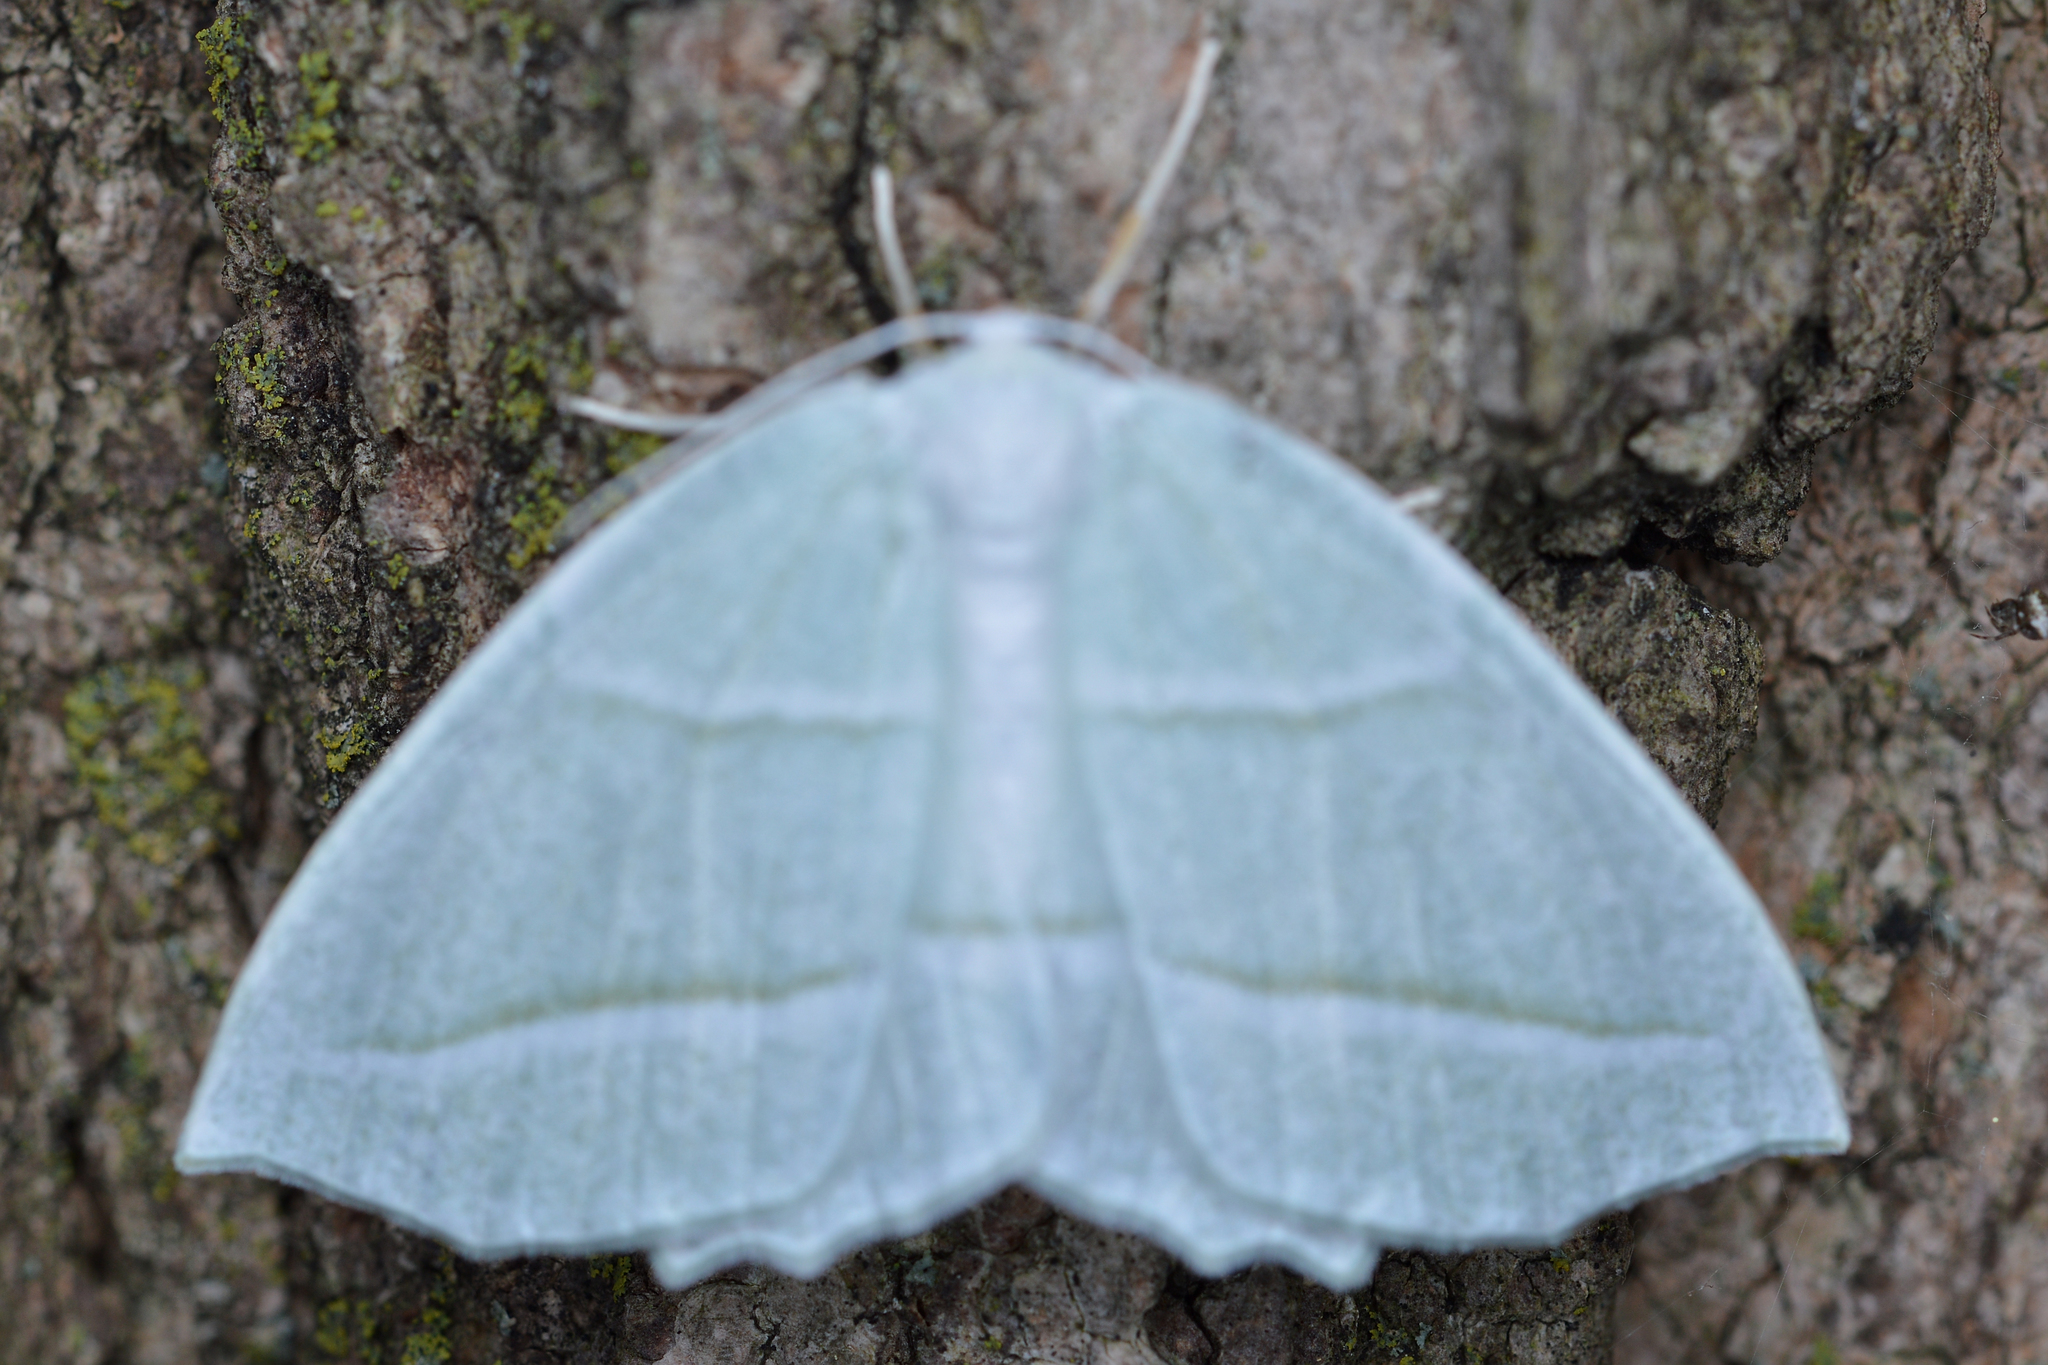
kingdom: Animalia
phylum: Arthropoda
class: Insecta
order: Lepidoptera
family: Geometridae
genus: Campaea
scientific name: Campaea perlata
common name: Fringed looper
